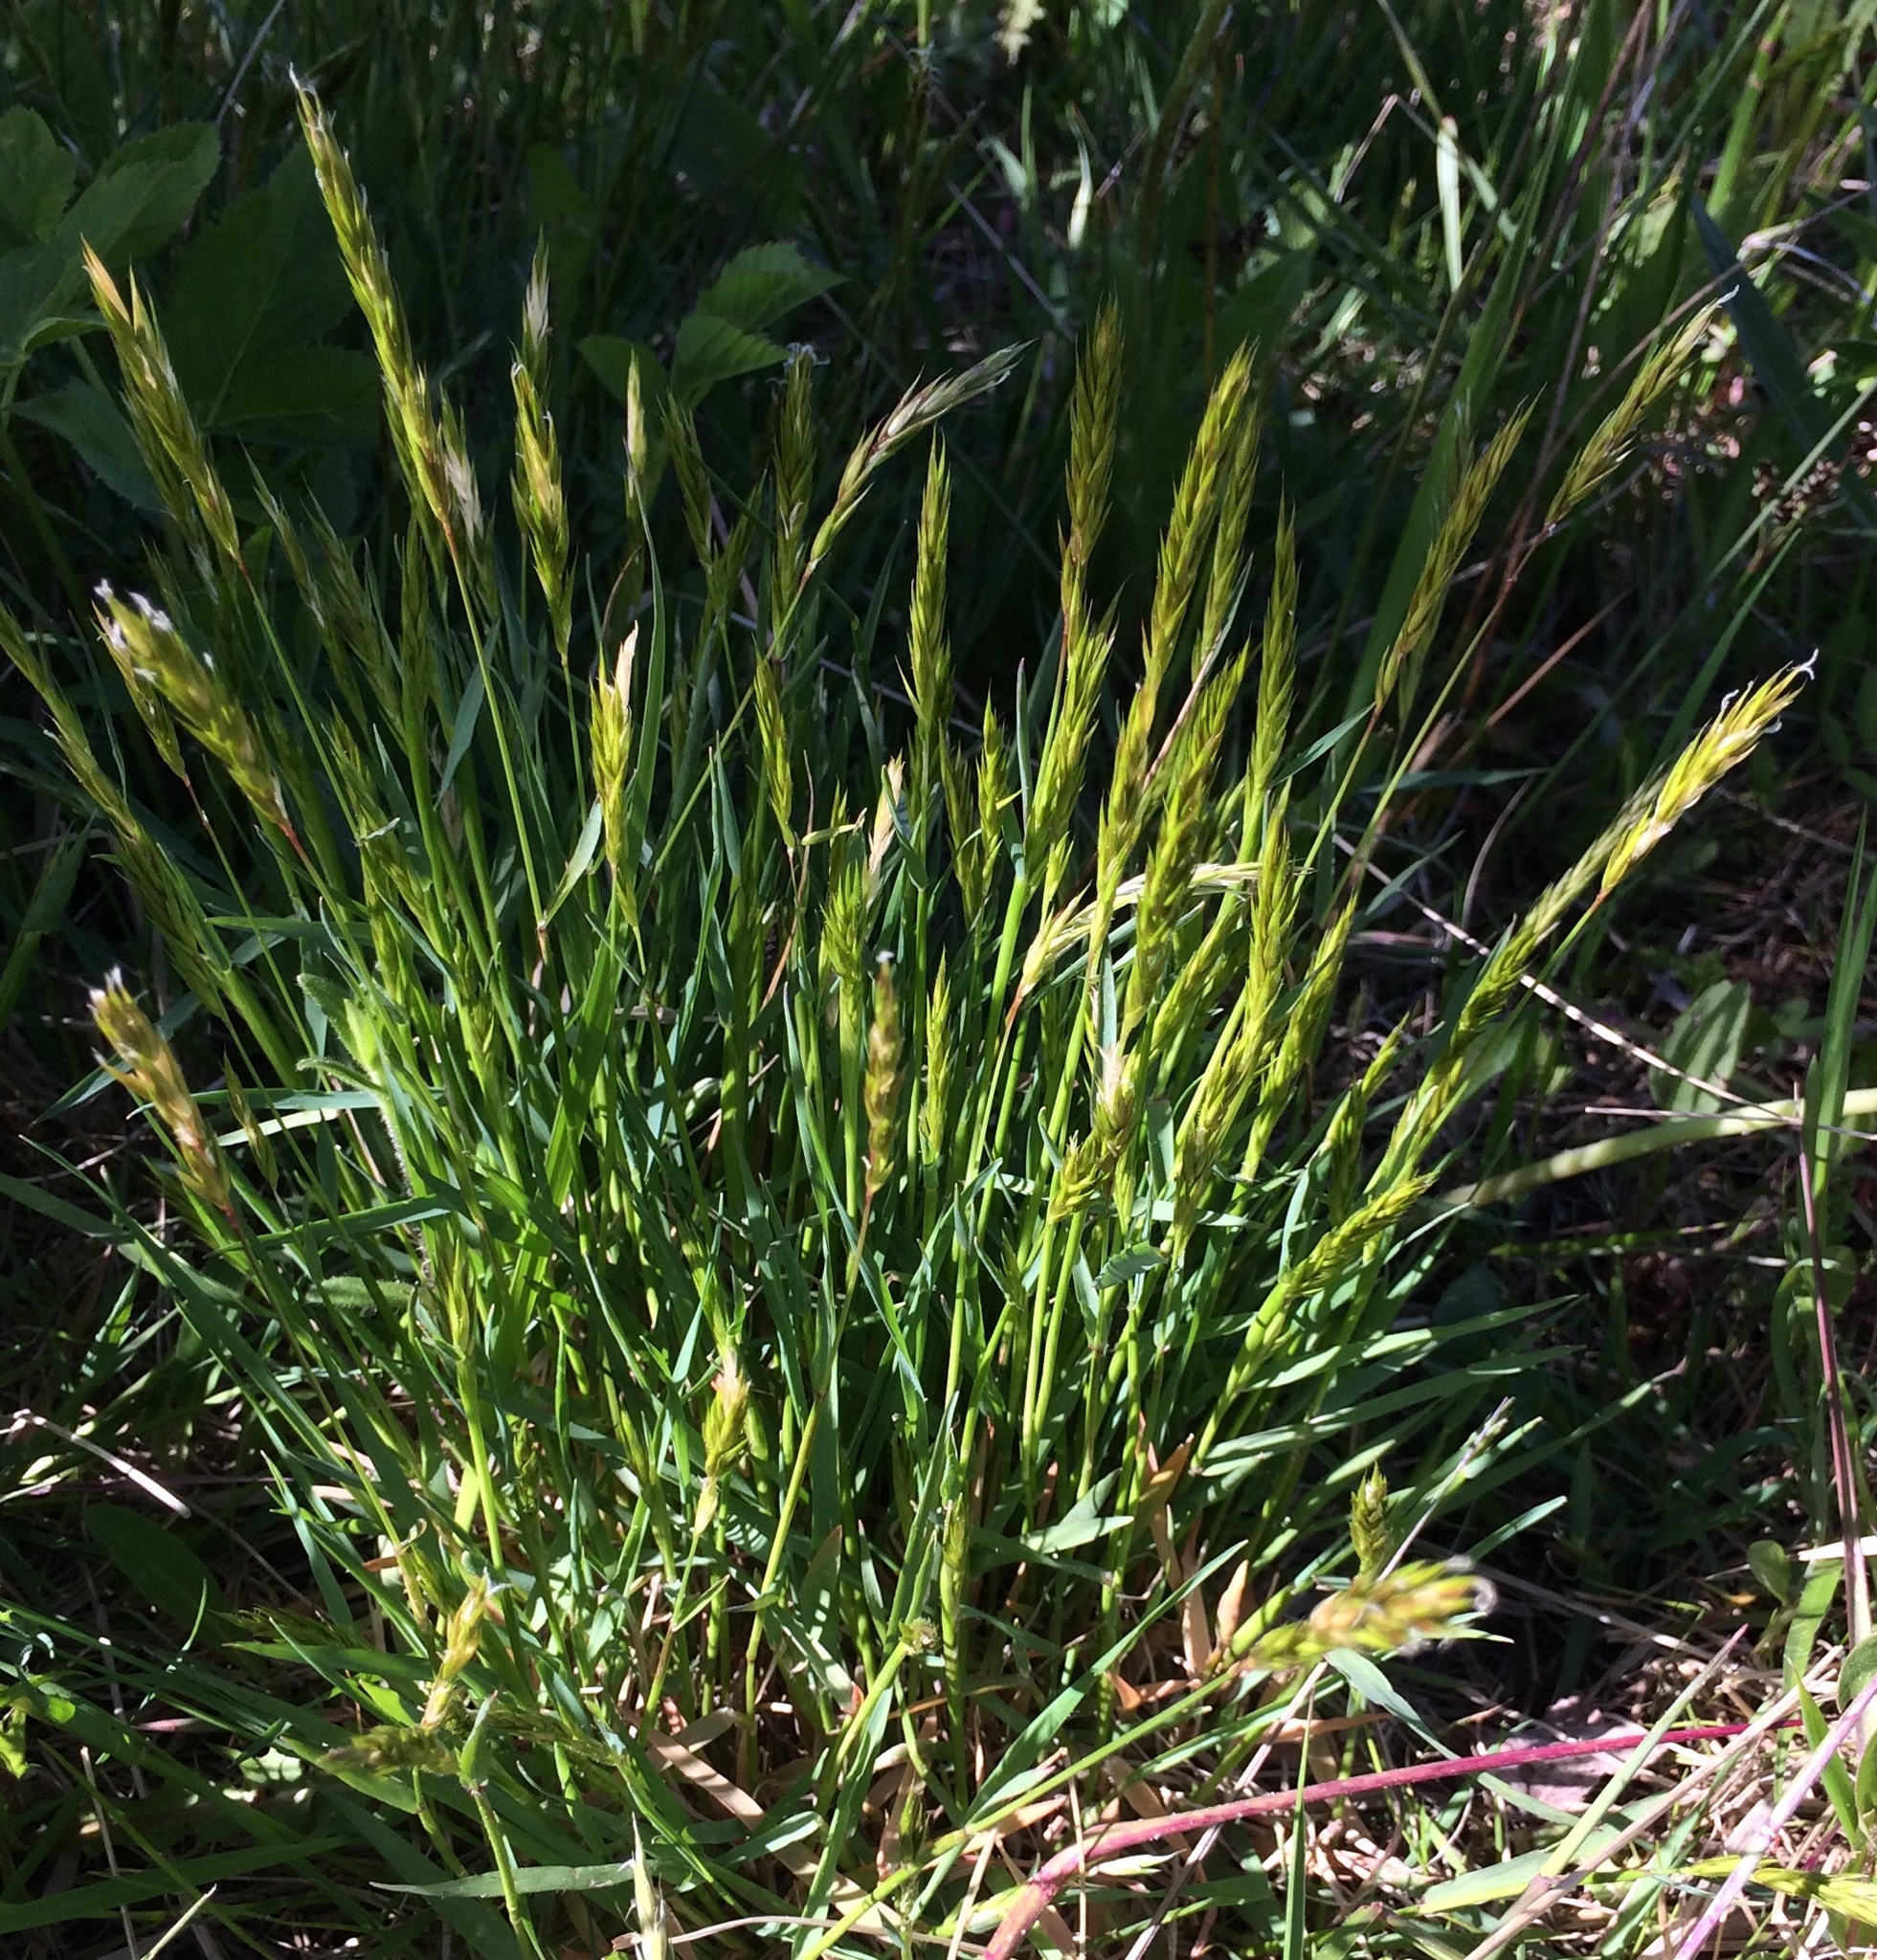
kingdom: Plantae
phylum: Tracheophyta
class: Liliopsida
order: Poales
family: Poaceae
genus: Anthoxanthum
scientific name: Anthoxanthum odoratum
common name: Sweet vernalgrass
